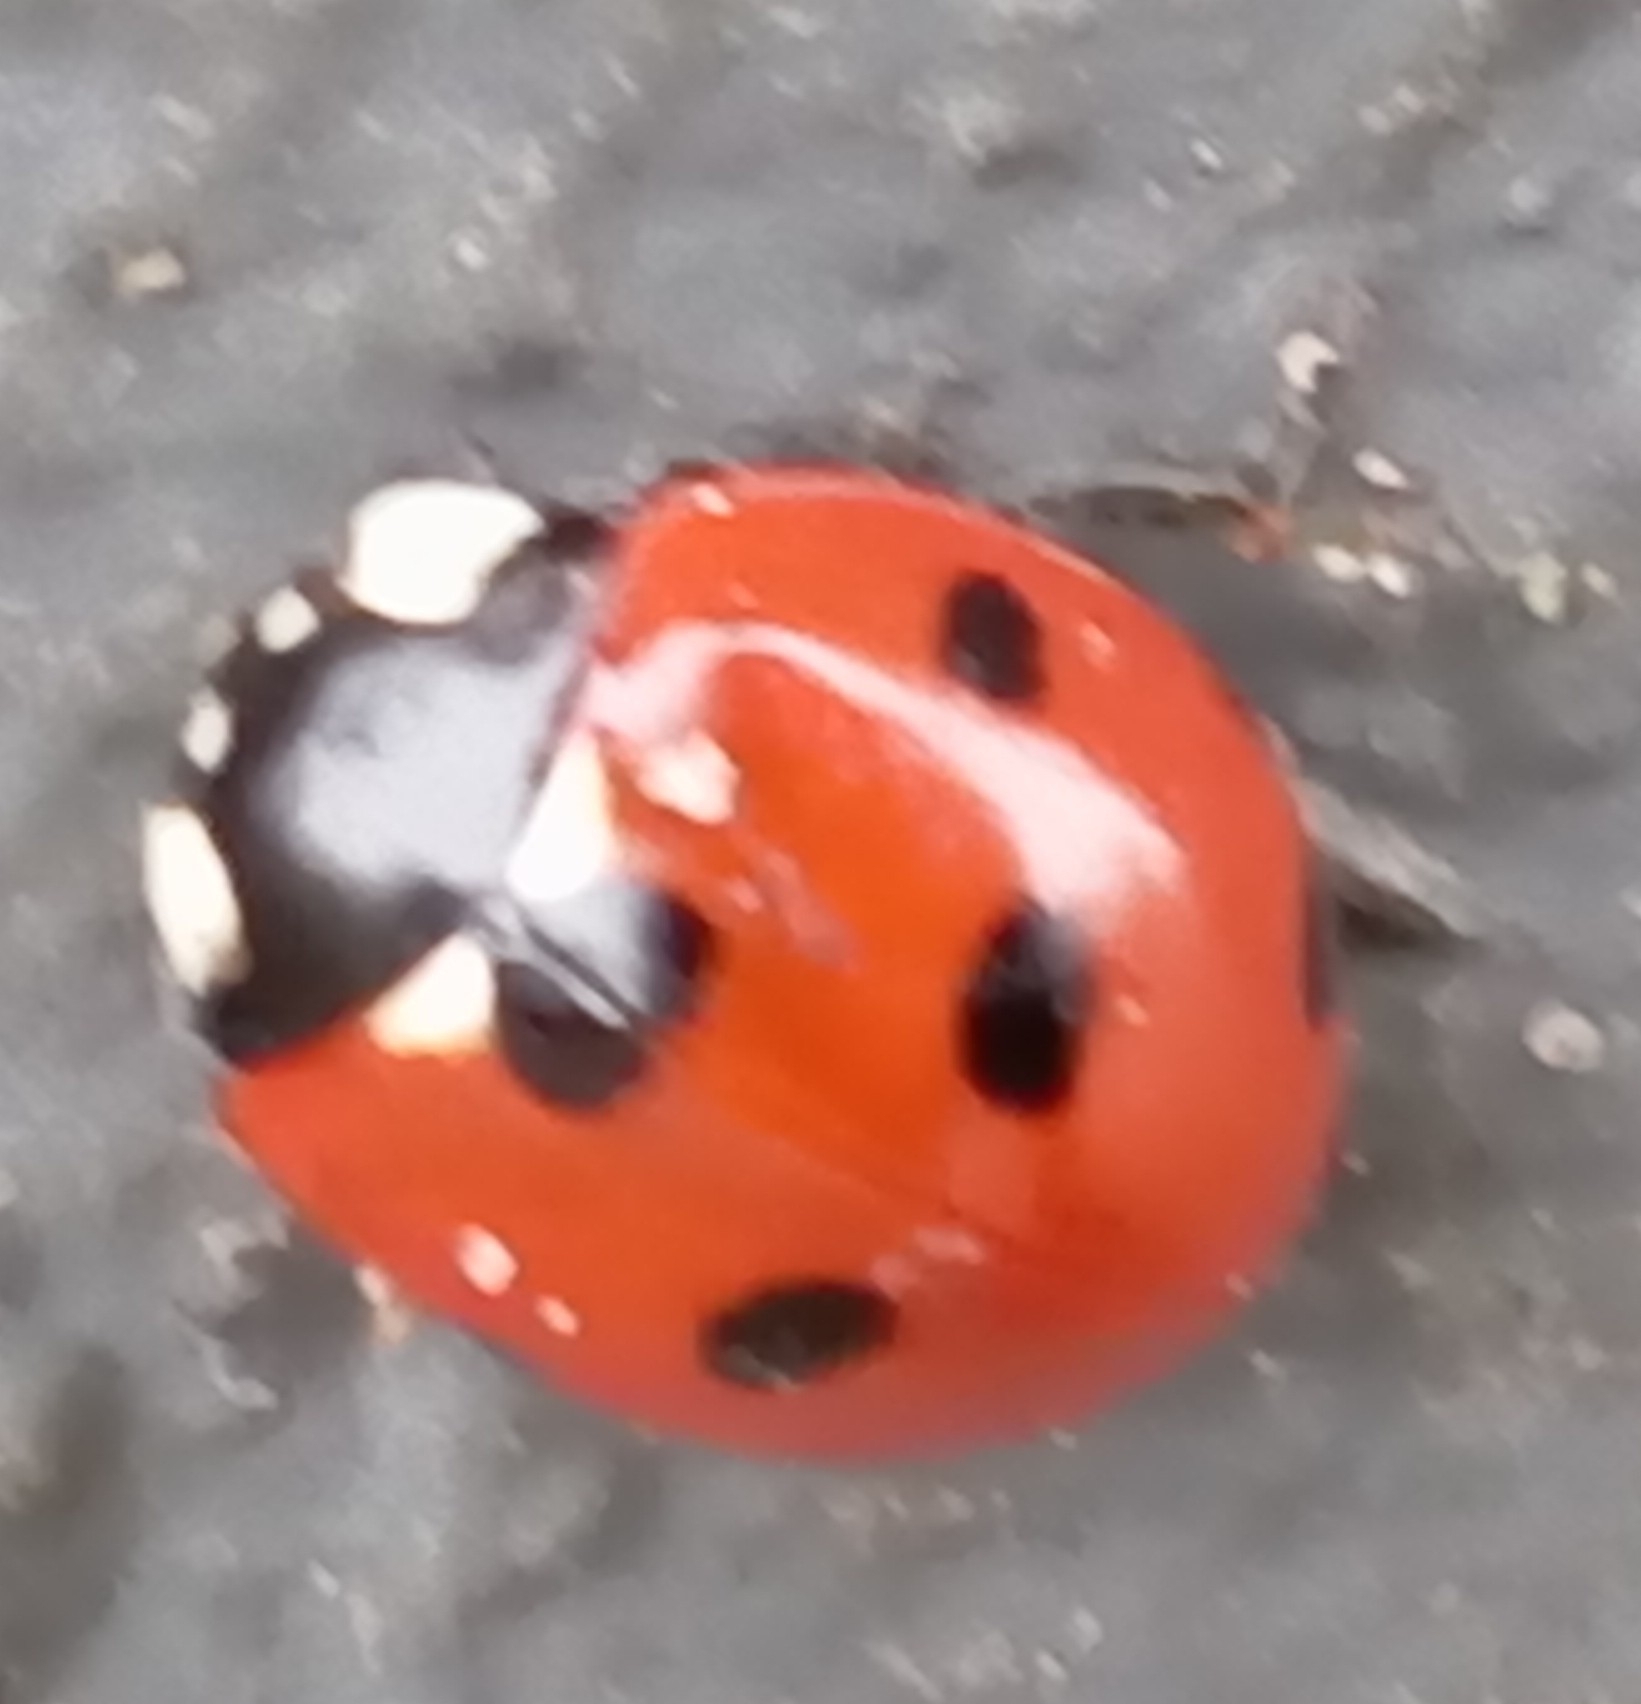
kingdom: Animalia
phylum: Arthropoda
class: Insecta
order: Coleoptera
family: Coccinellidae
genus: Coccinella
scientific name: Coccinella septempunctata
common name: Sevenspotted lady beetle
